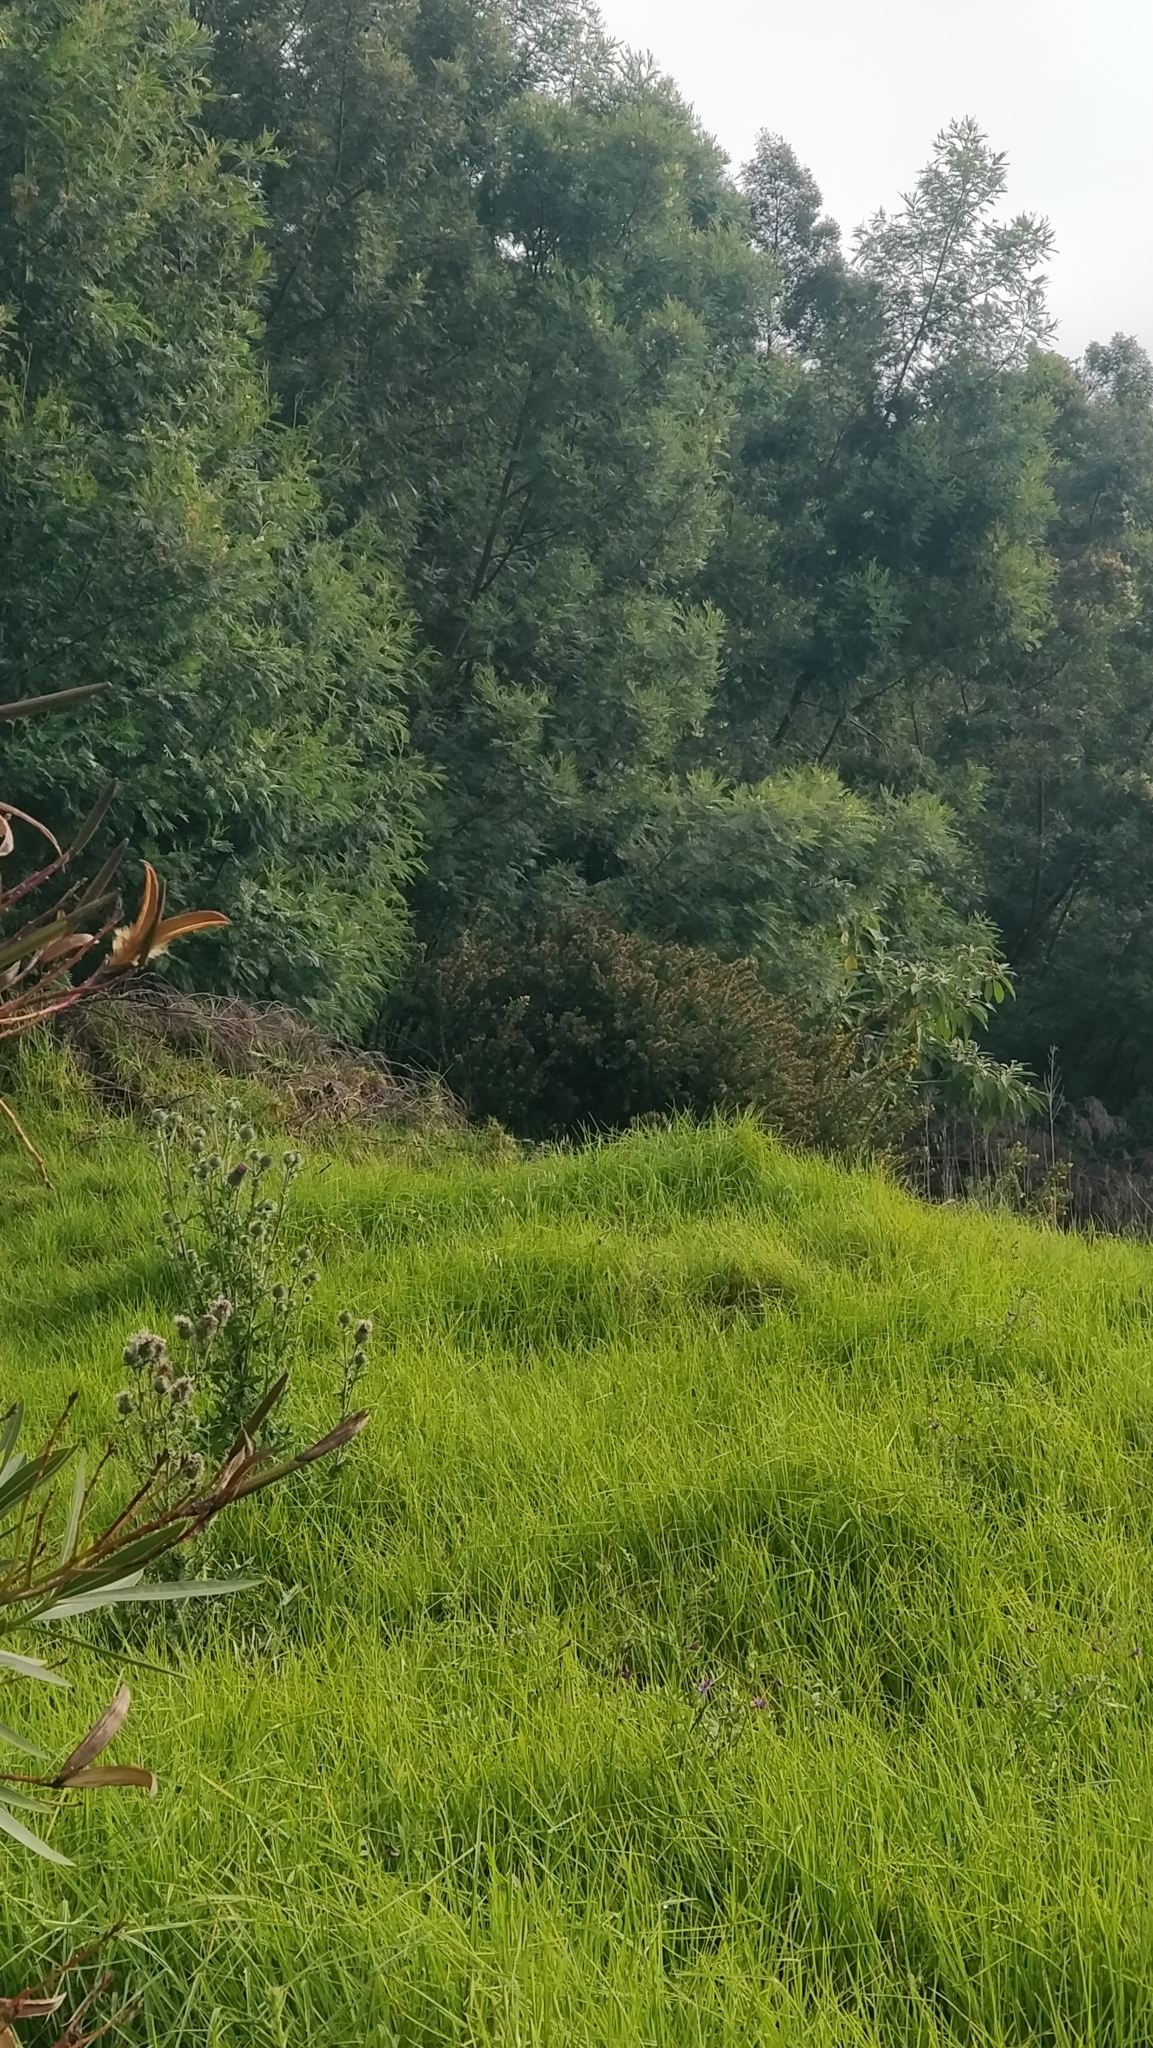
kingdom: Plantae
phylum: Tracheophyta
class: Magnoliopsida
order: Fabales
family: Fabaceae
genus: Ulex
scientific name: Ulex europaeus
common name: Common gorse
